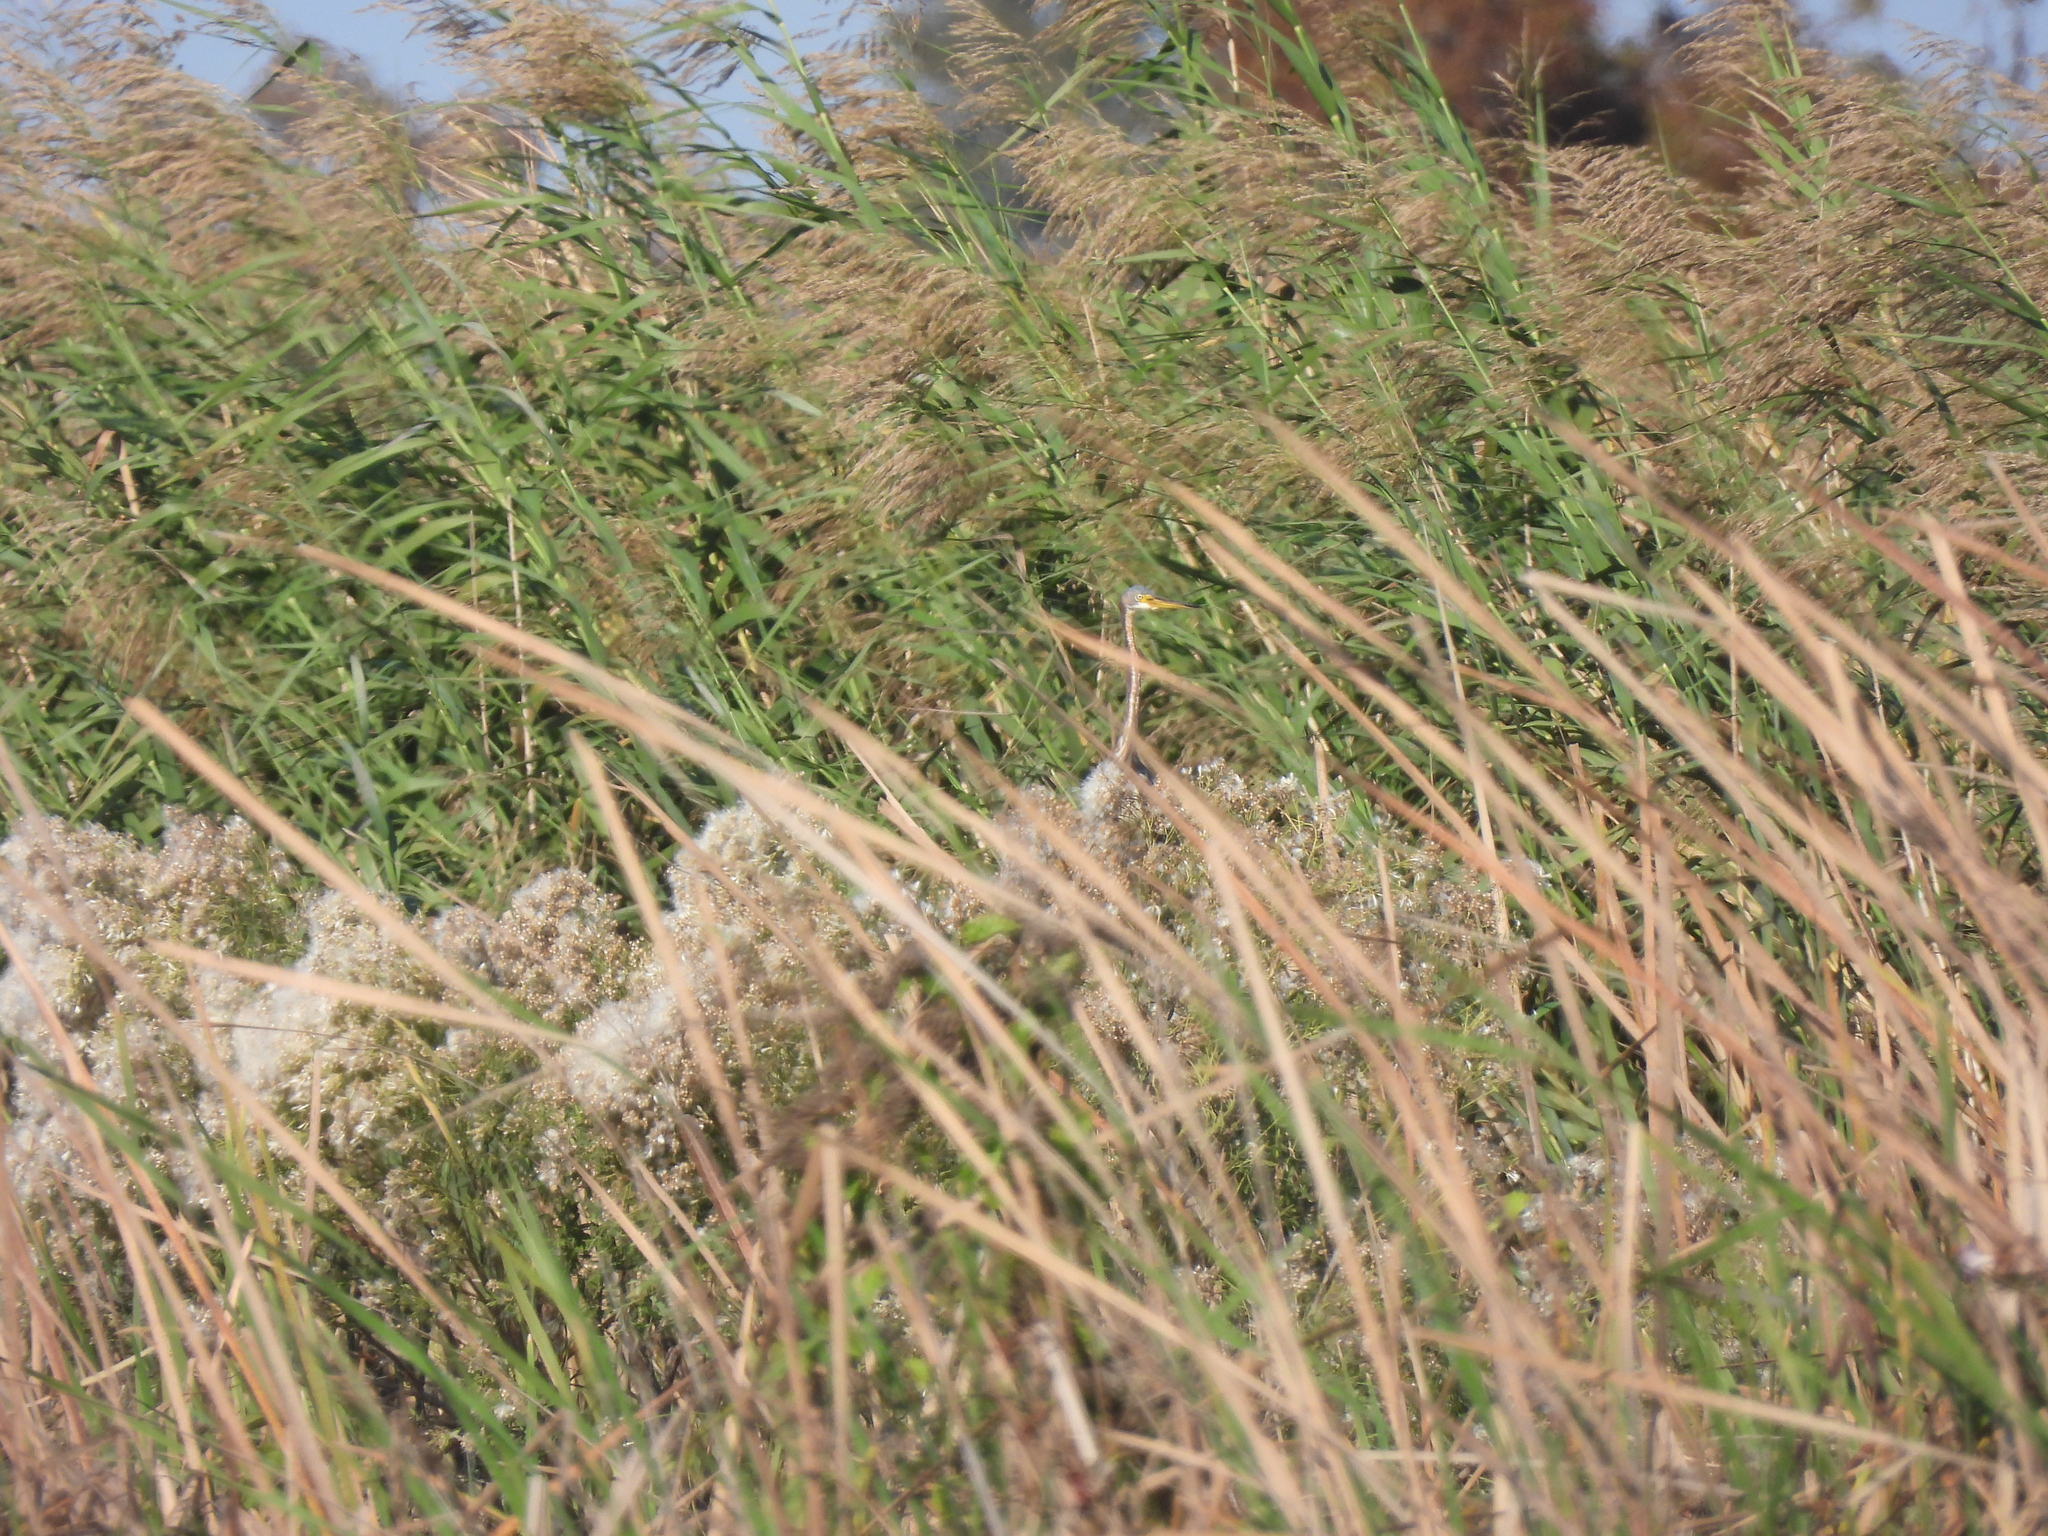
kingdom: Animalia
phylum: Chordata
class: Aves
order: Pelecaniformes
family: Ardeidae
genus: Egretta
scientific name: Egretta tricolor
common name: Tricolored heron
